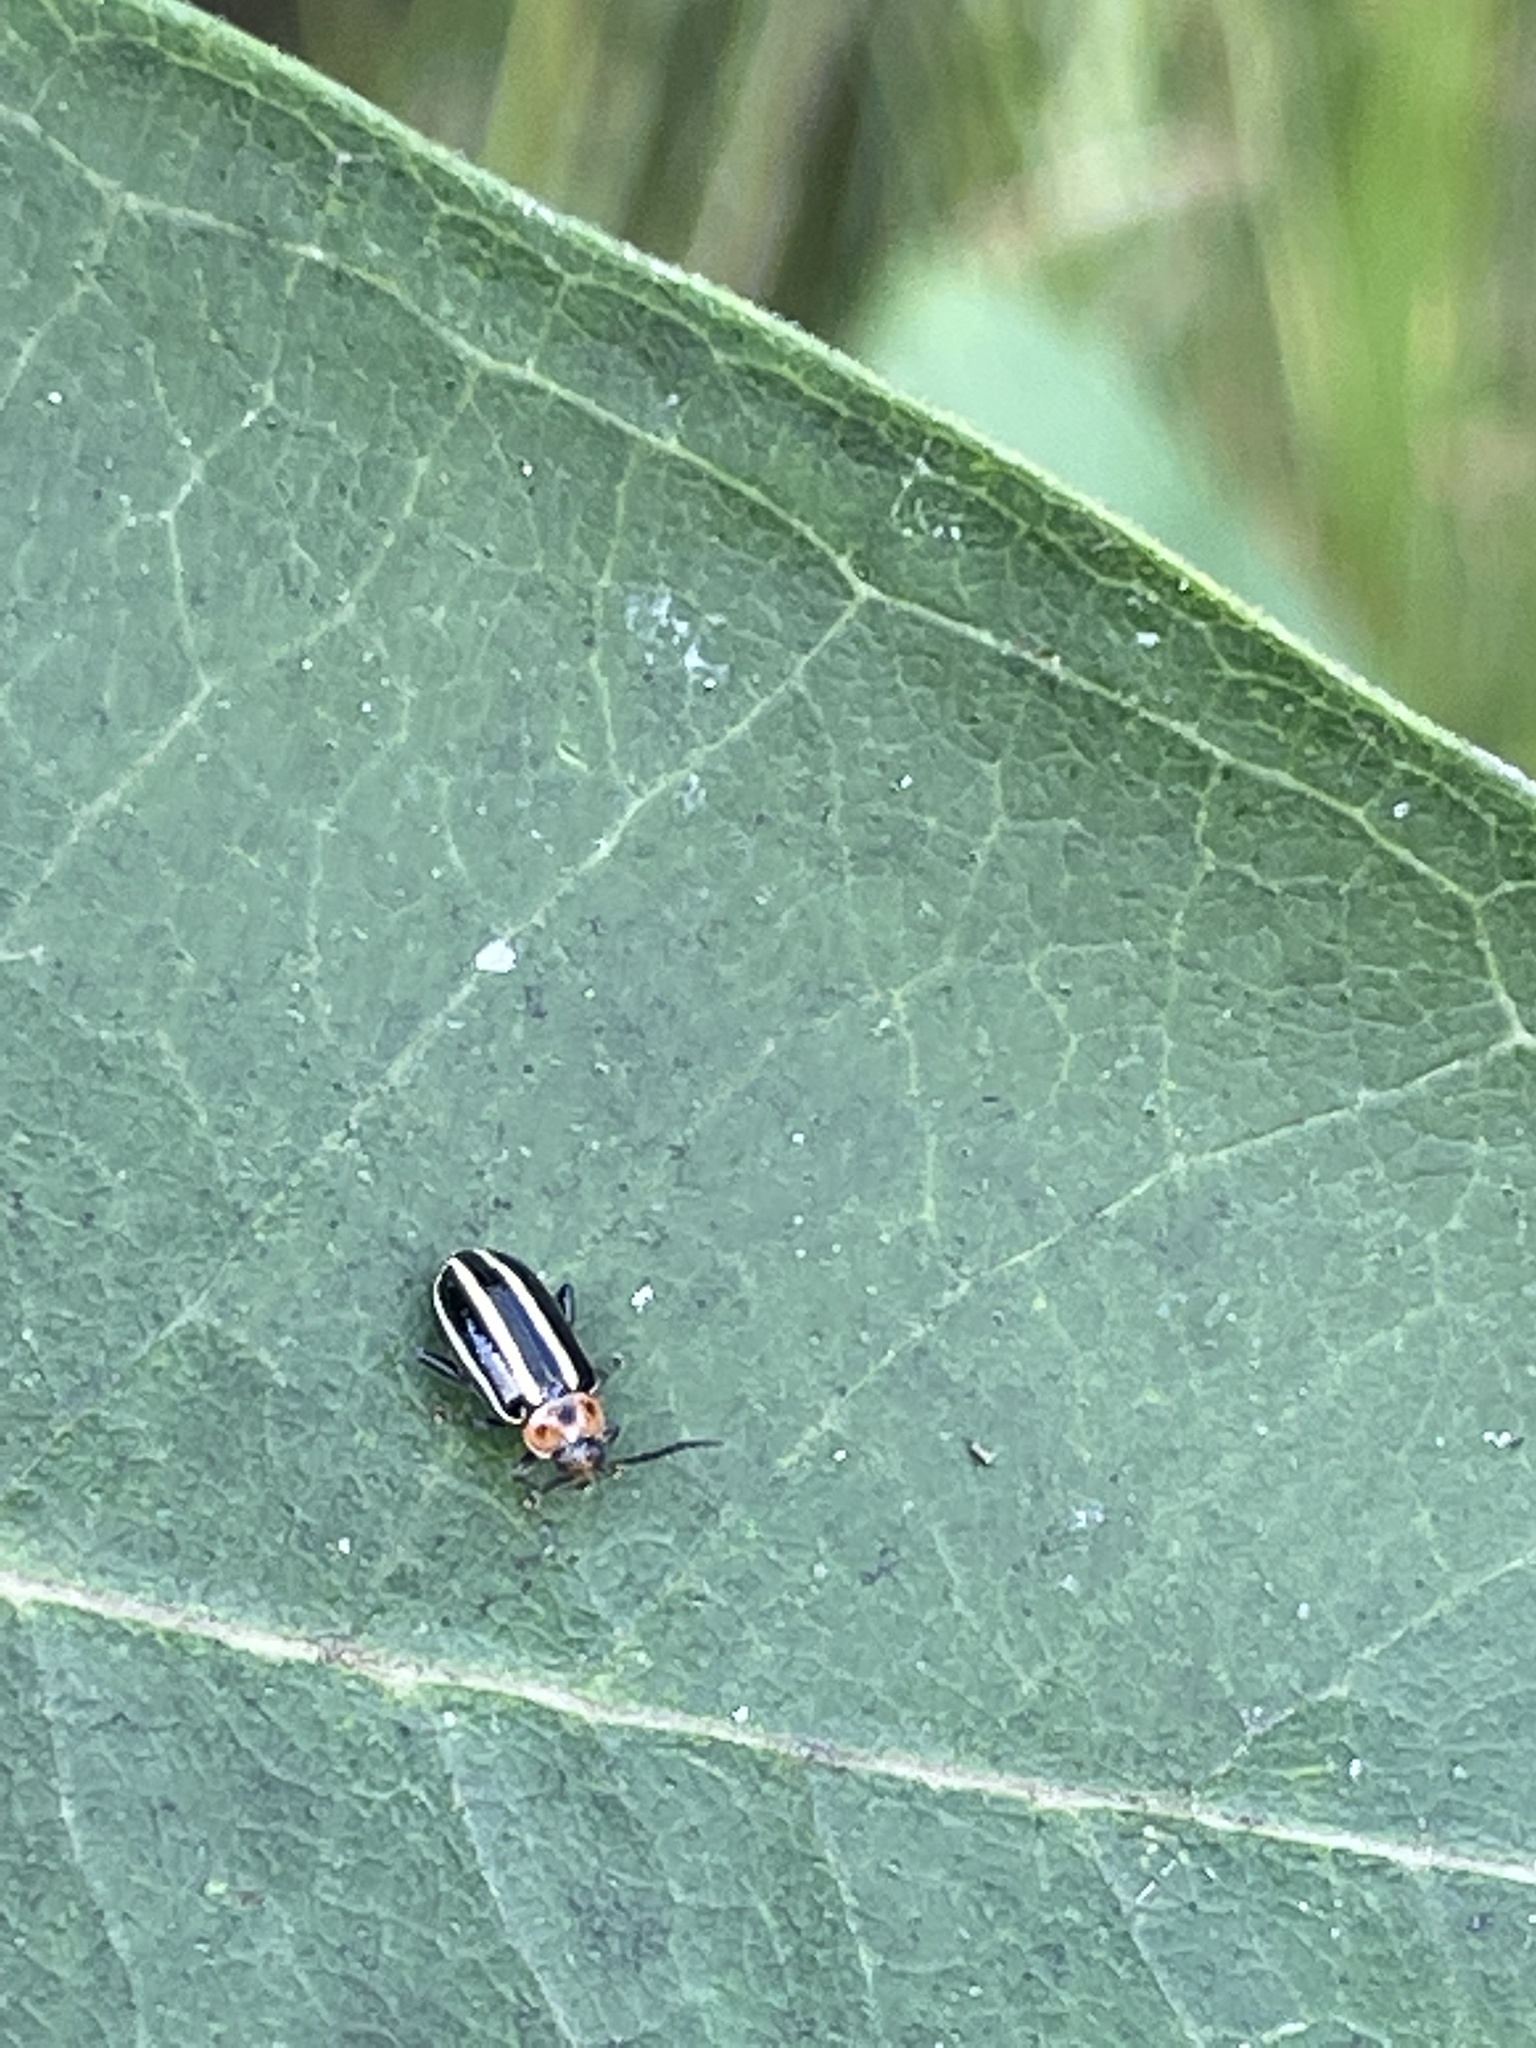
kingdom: Animalia
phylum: Arthropoda
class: Insecta
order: Coleoptera
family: Chrysomelidae
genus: Disonycha
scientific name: Disonycha glabrata
